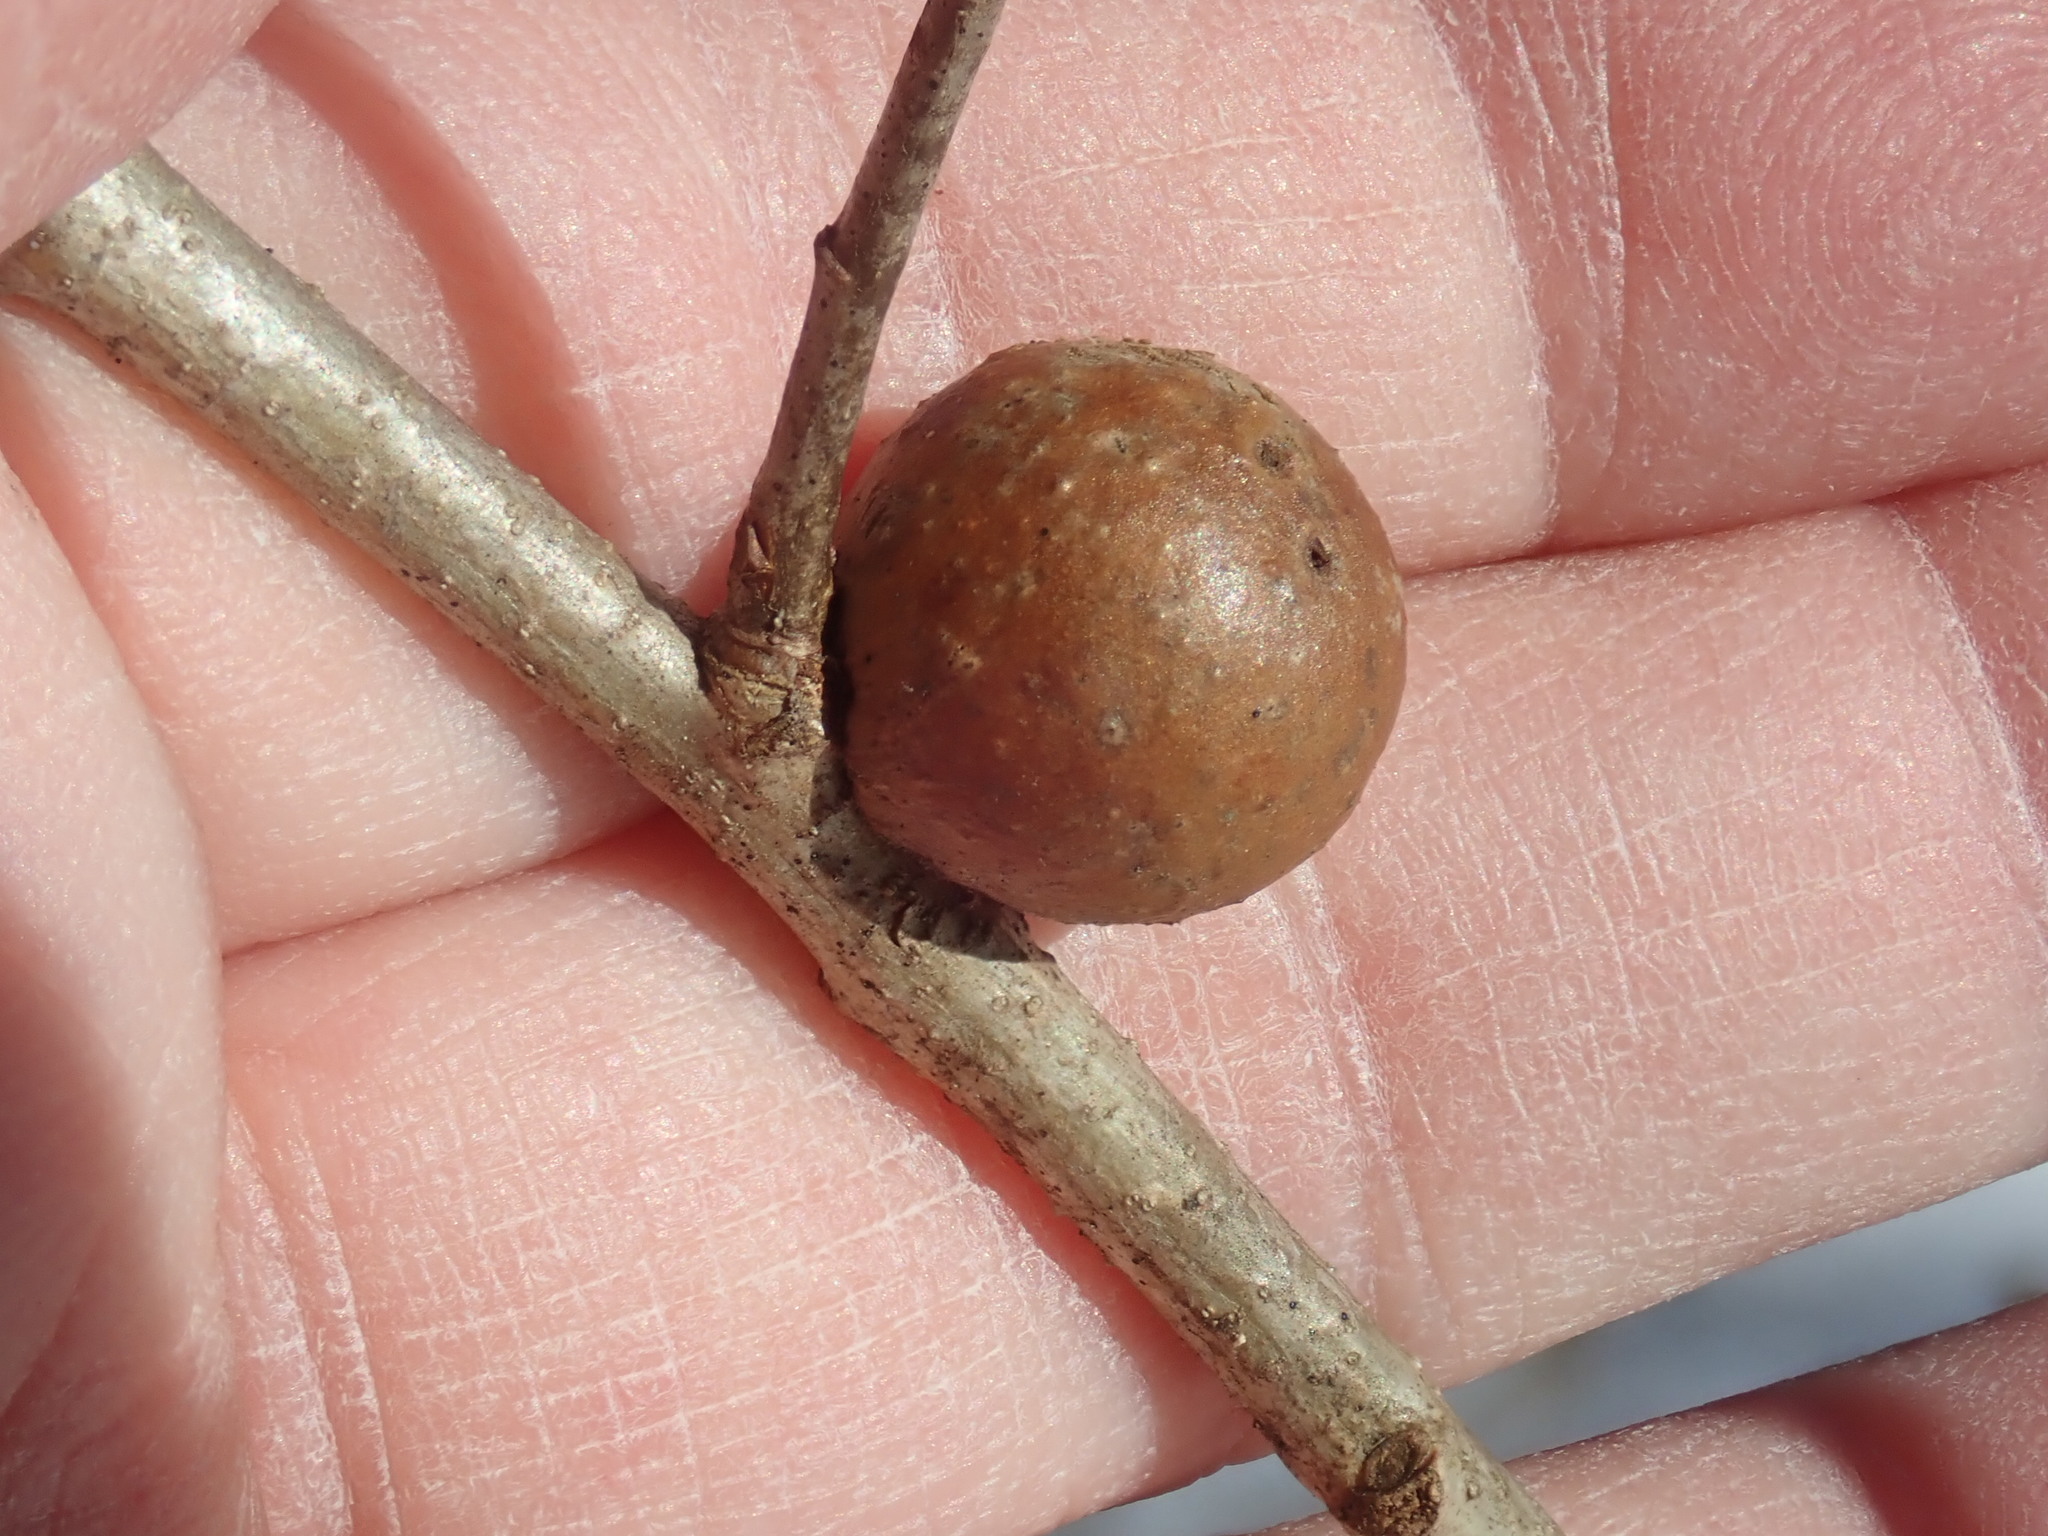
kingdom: Animalia
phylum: Arthropoda
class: Insecta
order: Hymenoptera
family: Cynipidae
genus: Disholcaspis
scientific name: Disholcaspis quercusglobulus
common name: Round bullet gall wasp
